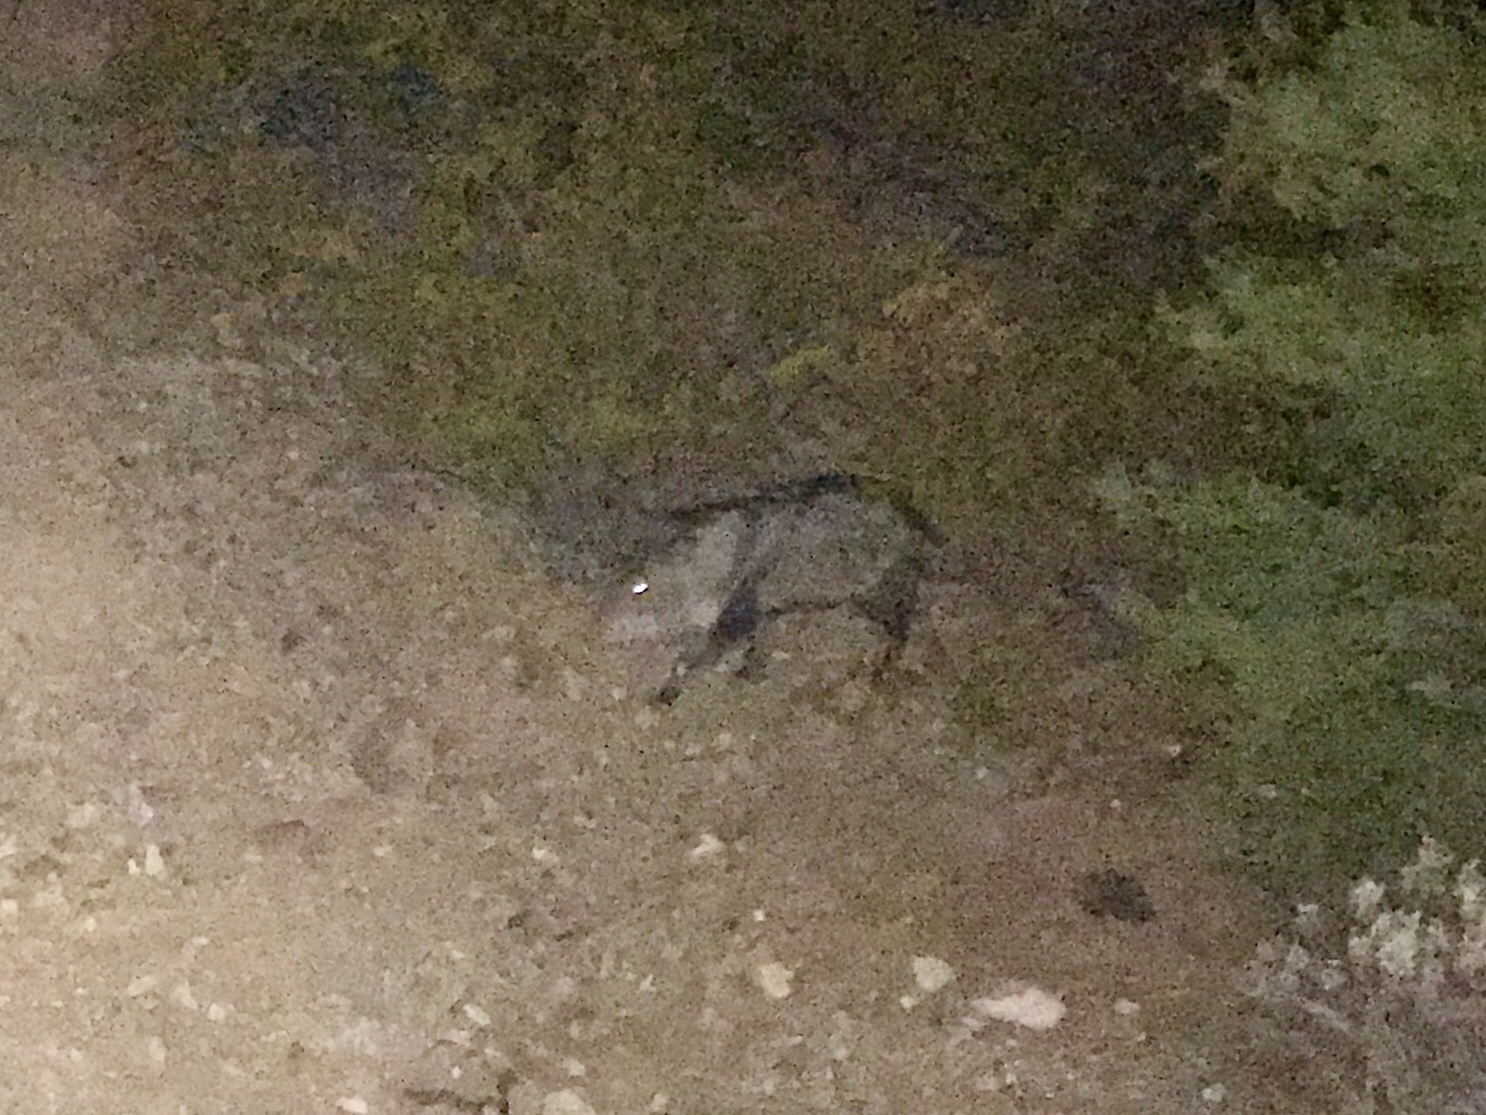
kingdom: Animalia
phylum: Chordata
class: Mammalia
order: Artiodactyla
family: Tayassuidae
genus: Pecari
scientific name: Pecari tajacu
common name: Collared peccary
